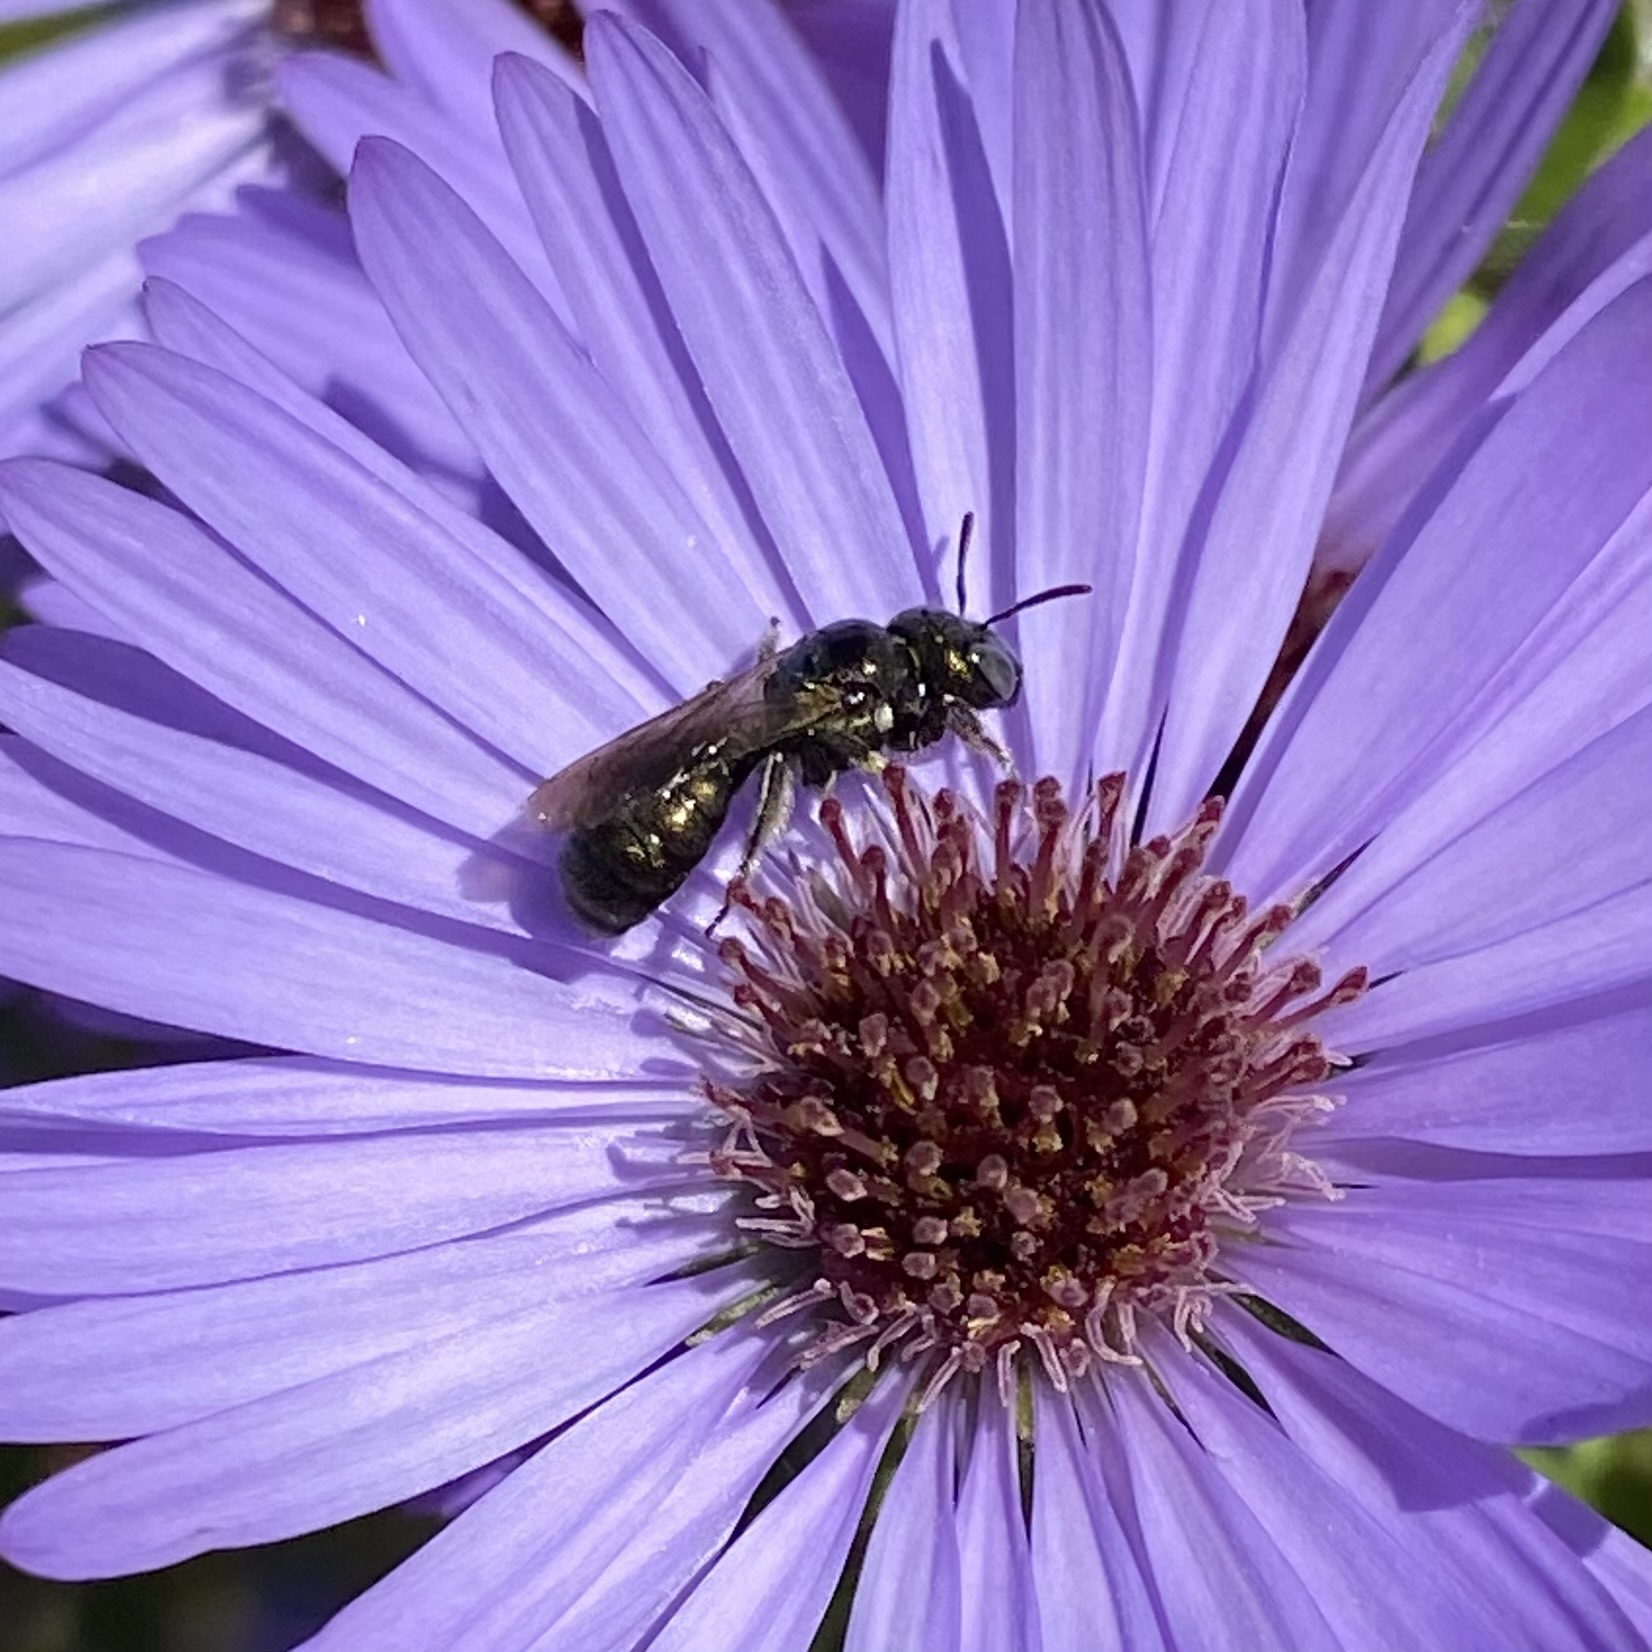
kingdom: Animalia
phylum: Arthropoda
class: Insecta
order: Hymenoptera
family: Apidae
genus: Zadontomerus
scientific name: Zadontomerus
